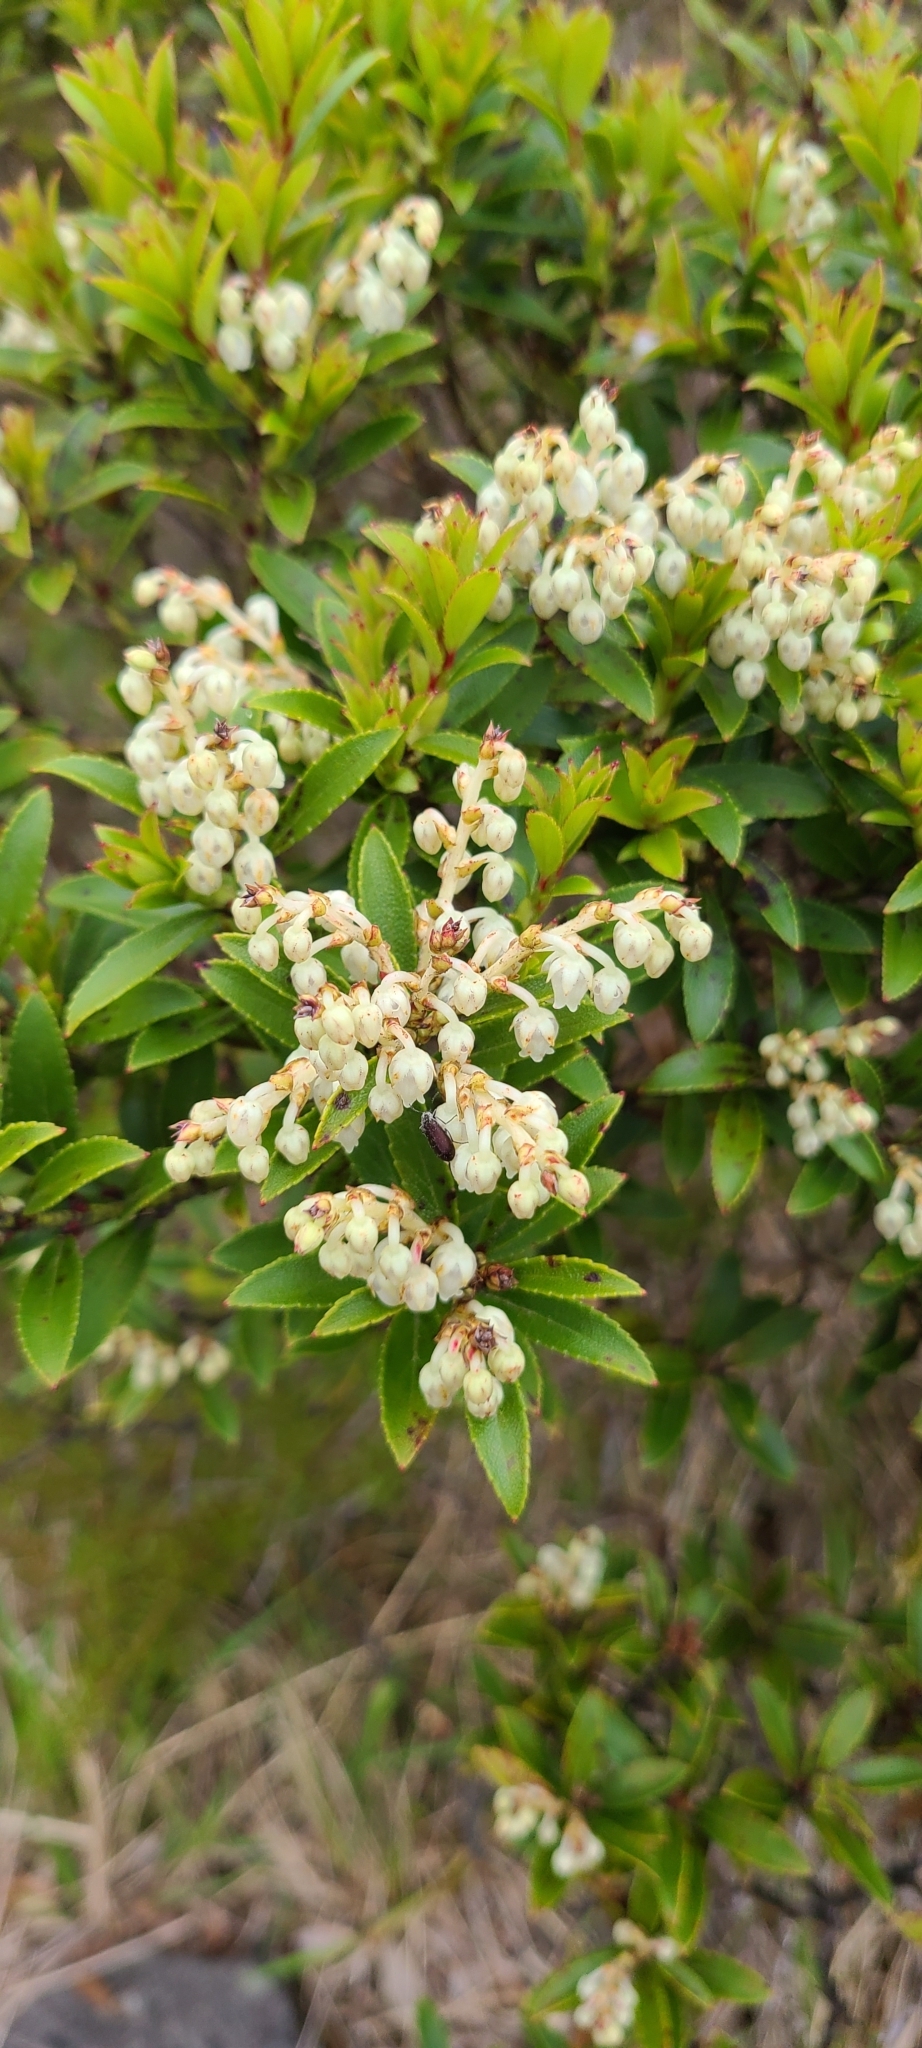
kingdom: Plantae
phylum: Tracheophyta
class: Magnoliopsida
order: Ericales
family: Ericaceae
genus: Gaultheria
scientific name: Gaultheria rupestris
